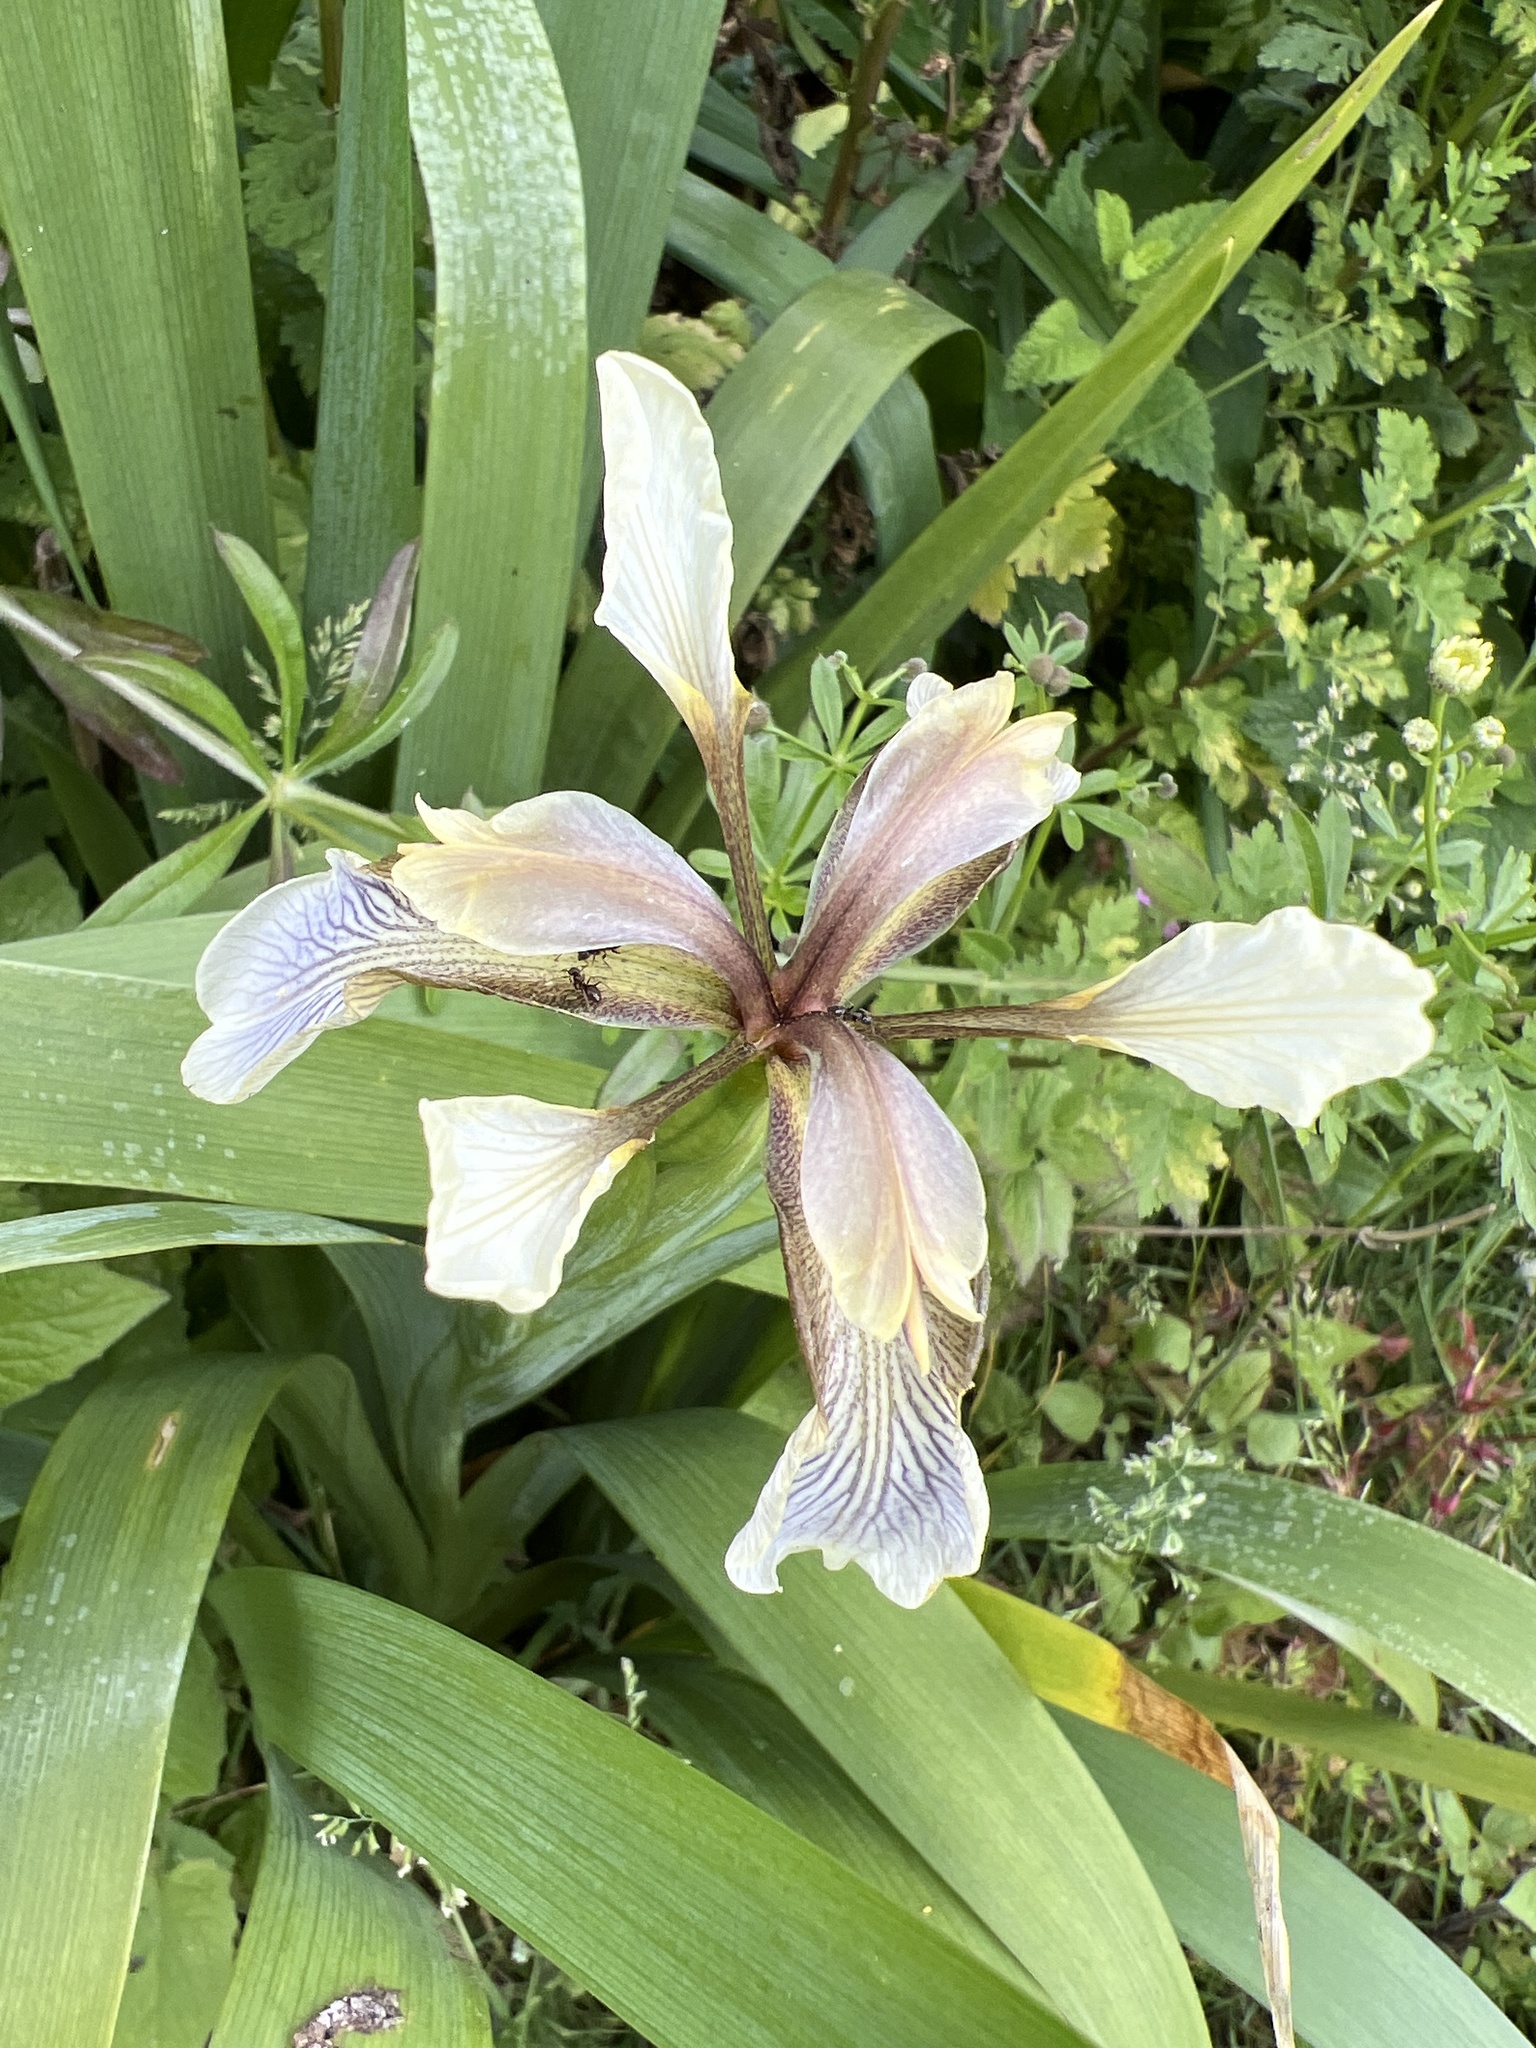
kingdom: Plantae
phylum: Tracheophyta
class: Liliopsida
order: Asparagales
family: Iridaceae
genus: Iris
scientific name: Iris foetidissima
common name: Stinking iris
